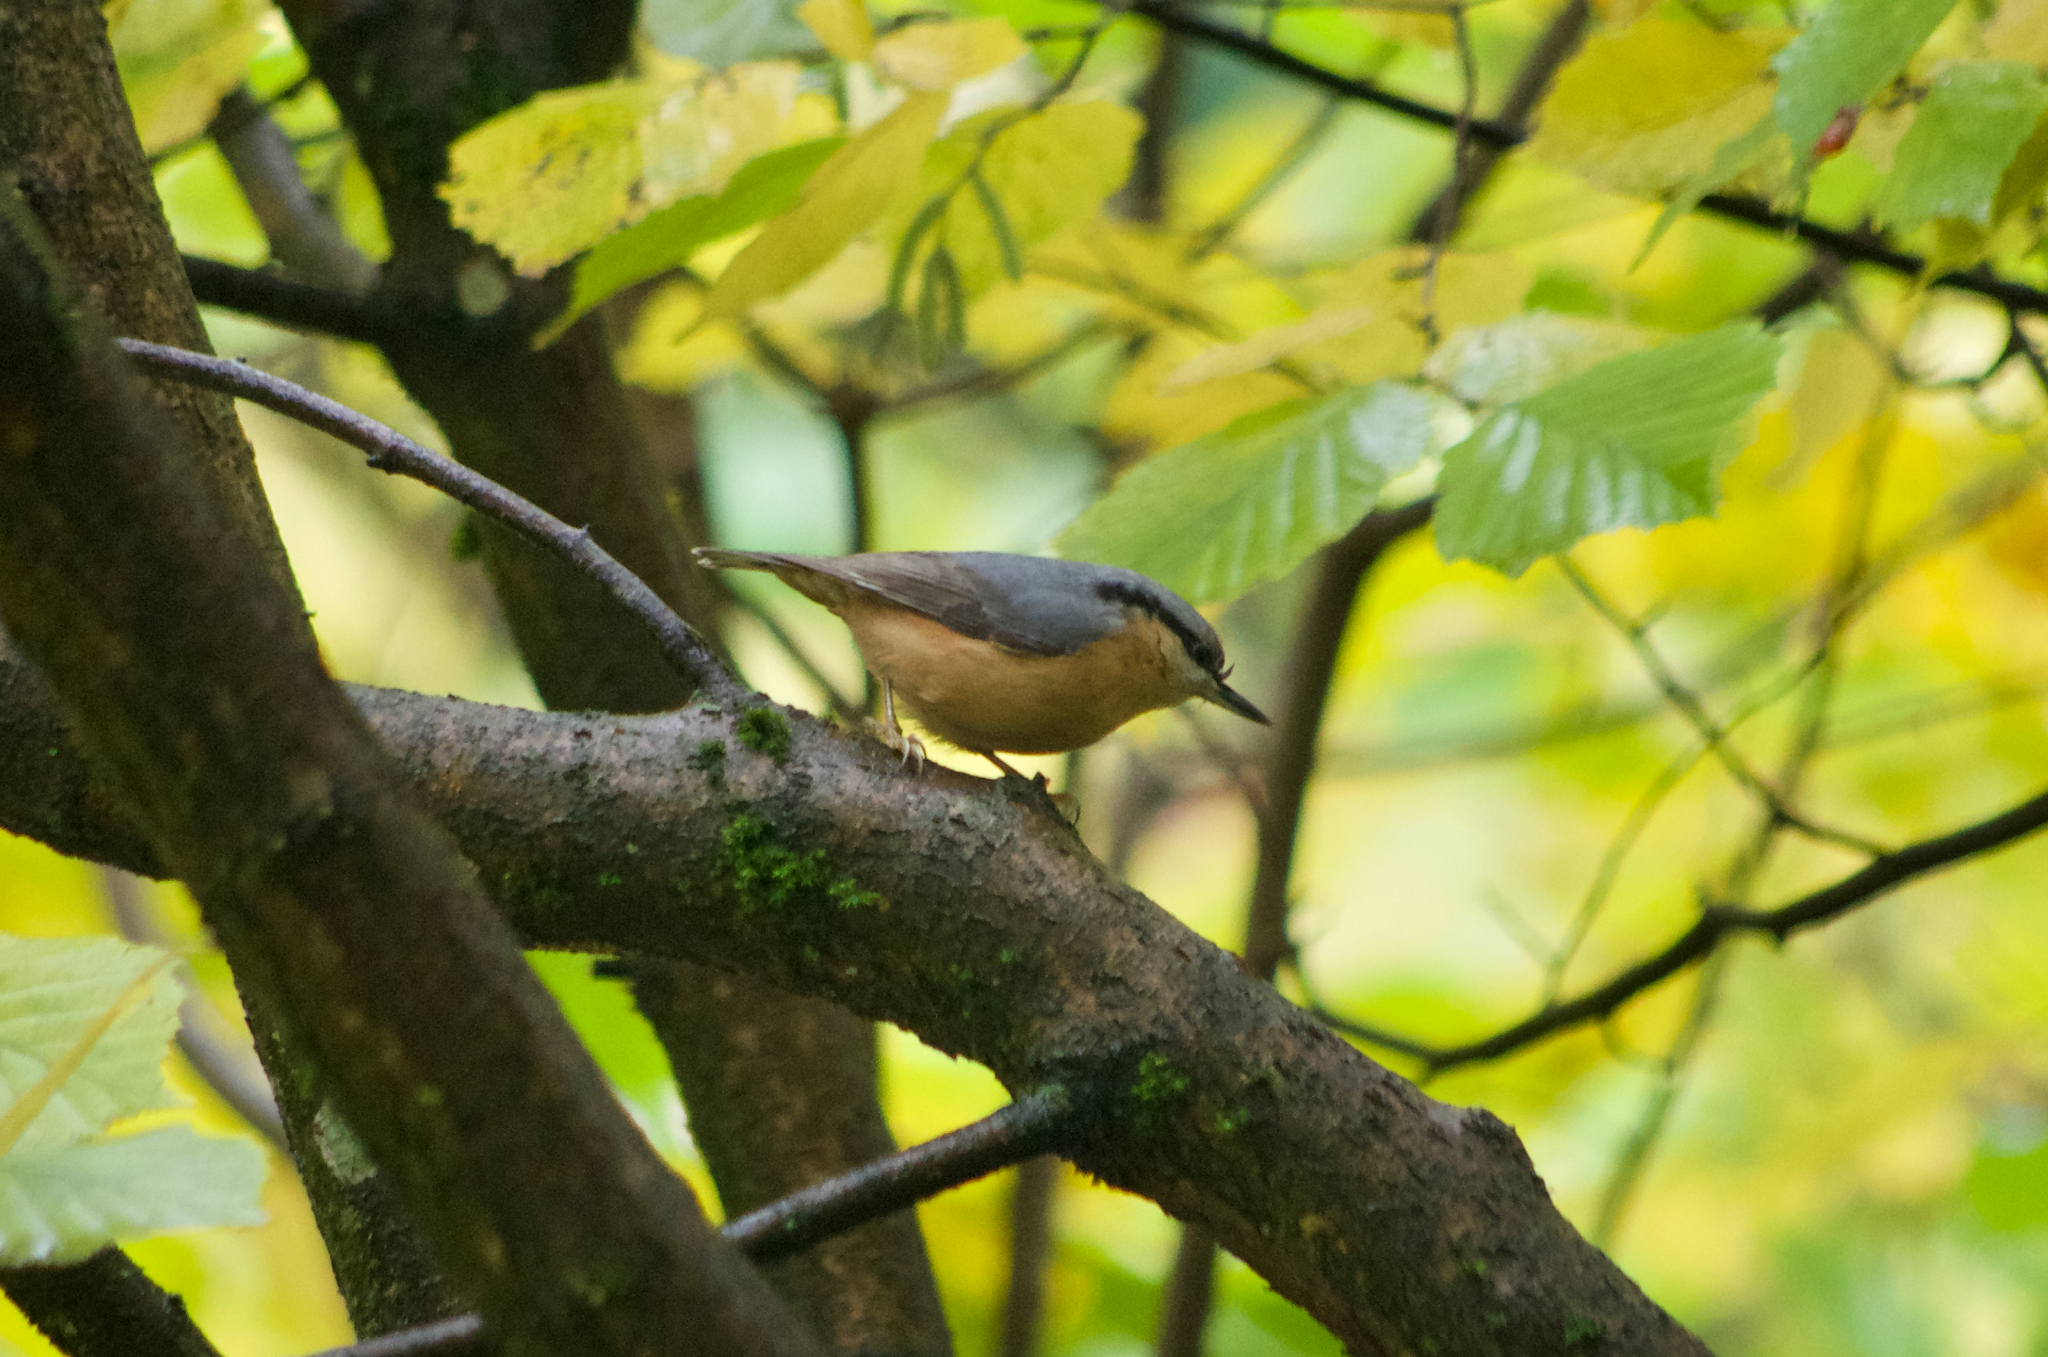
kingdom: Animalia
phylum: Chordata
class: Aves
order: Passeriformes
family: Sittidae
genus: Sitta
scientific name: Sitta europaea
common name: Eurasian nuthatch
